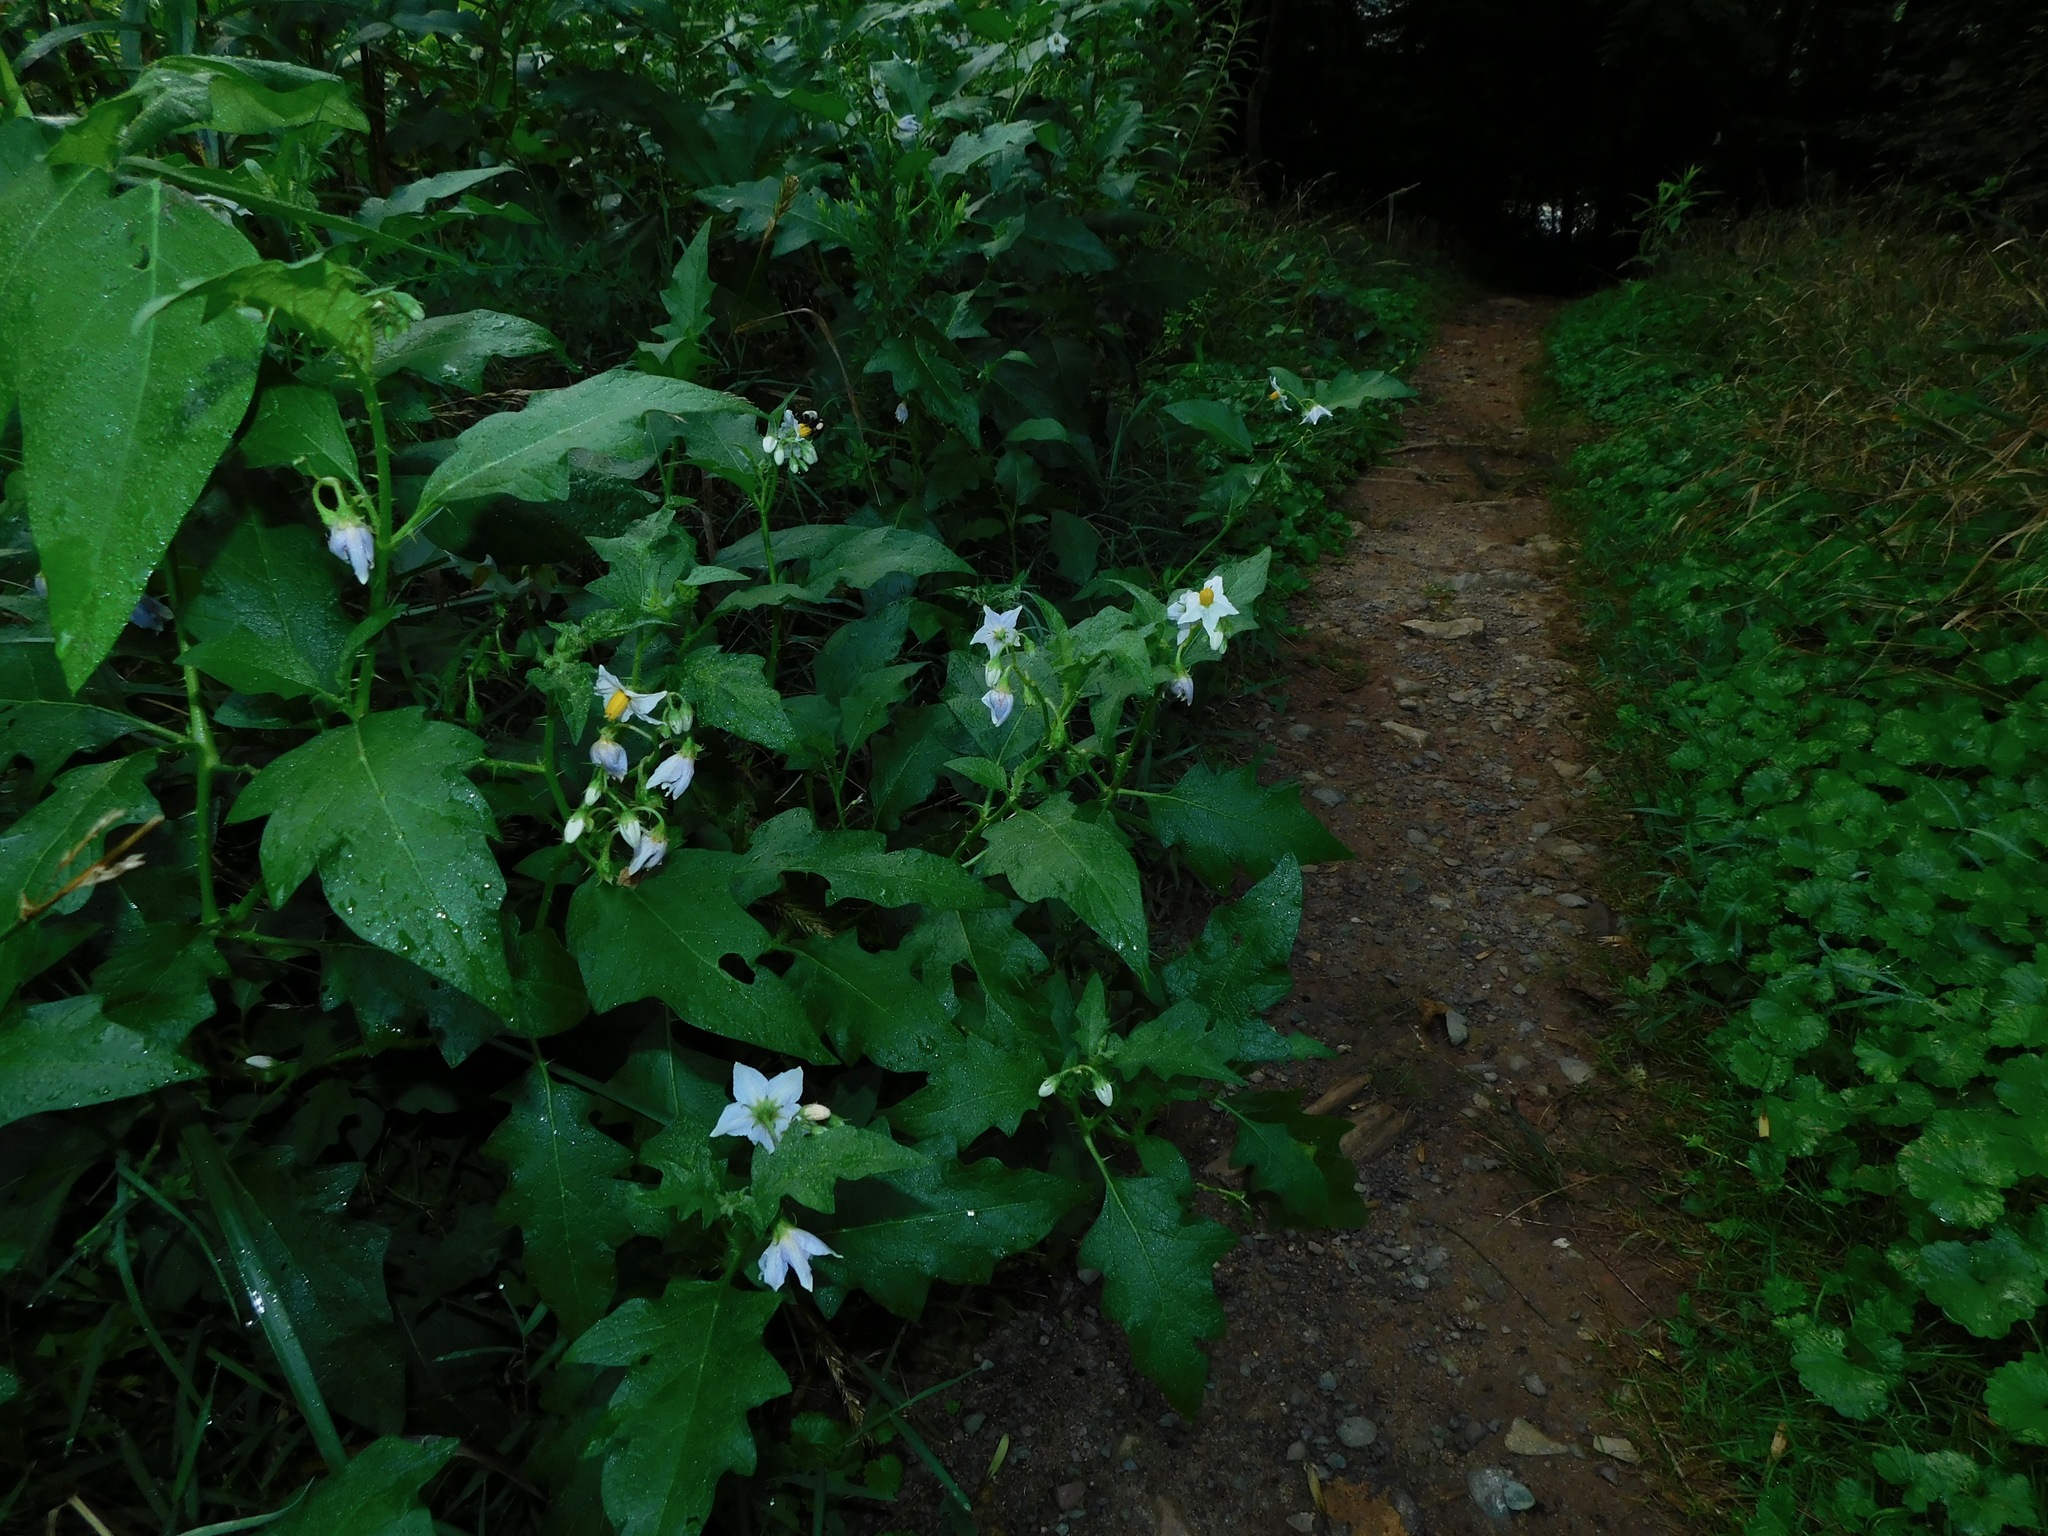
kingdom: Plantae
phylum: Tracheophyta
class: Magnoliopsida
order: Solanales
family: Solanaceae
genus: Solanum
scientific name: Solanum carolinense
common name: Horse-nettle
